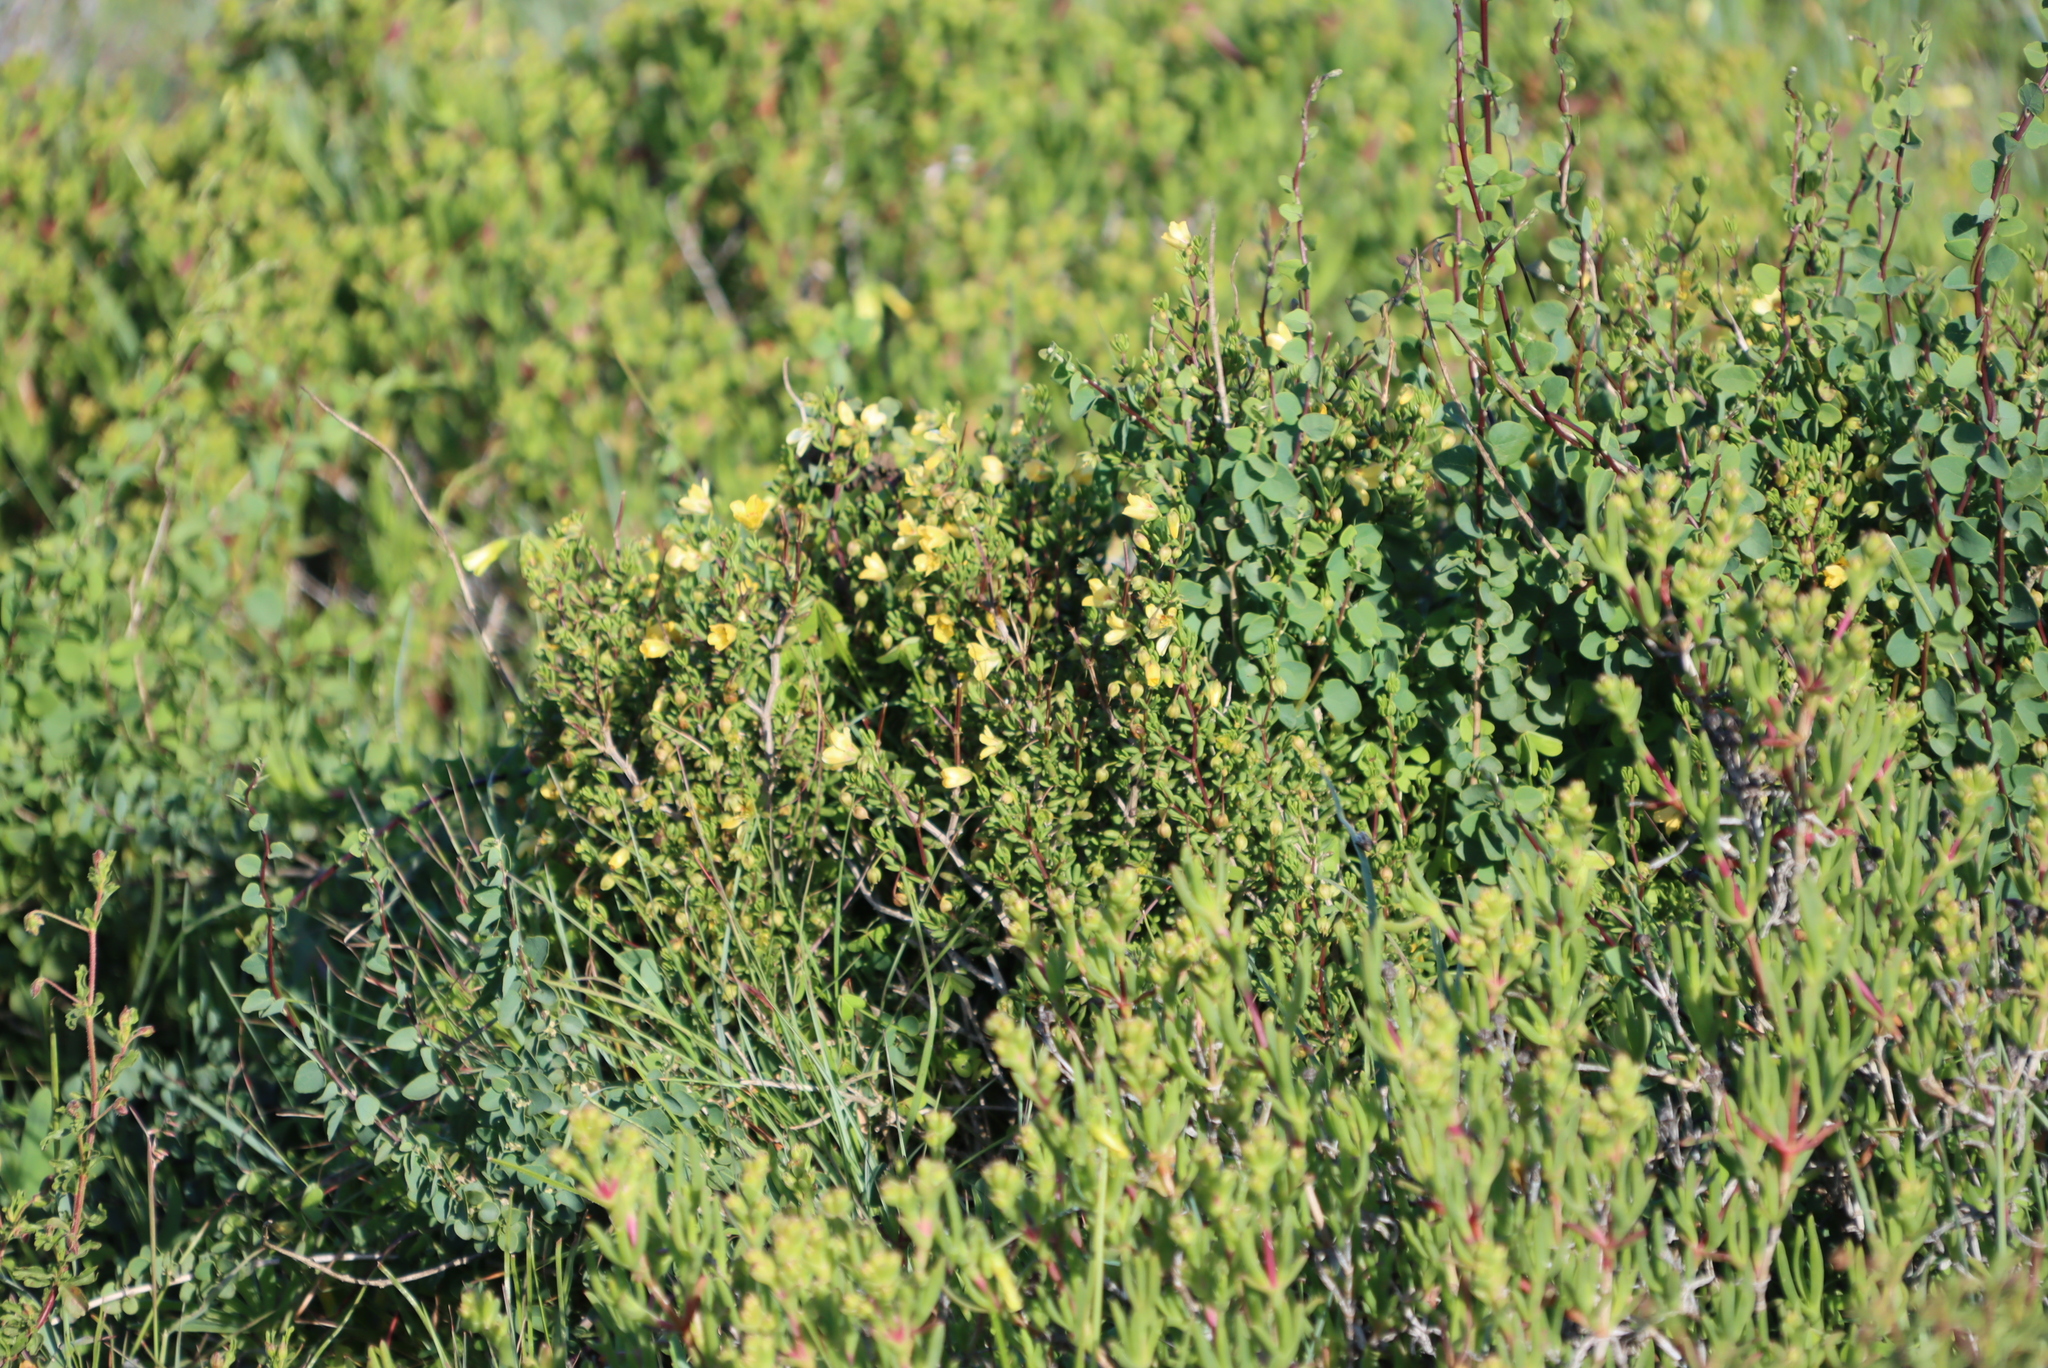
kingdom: Plantae
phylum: Tracheophyta
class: Magnoliopsida
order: Ranunculales
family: Menispermaceae
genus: Cissampelos
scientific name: Cissampelos capensis
